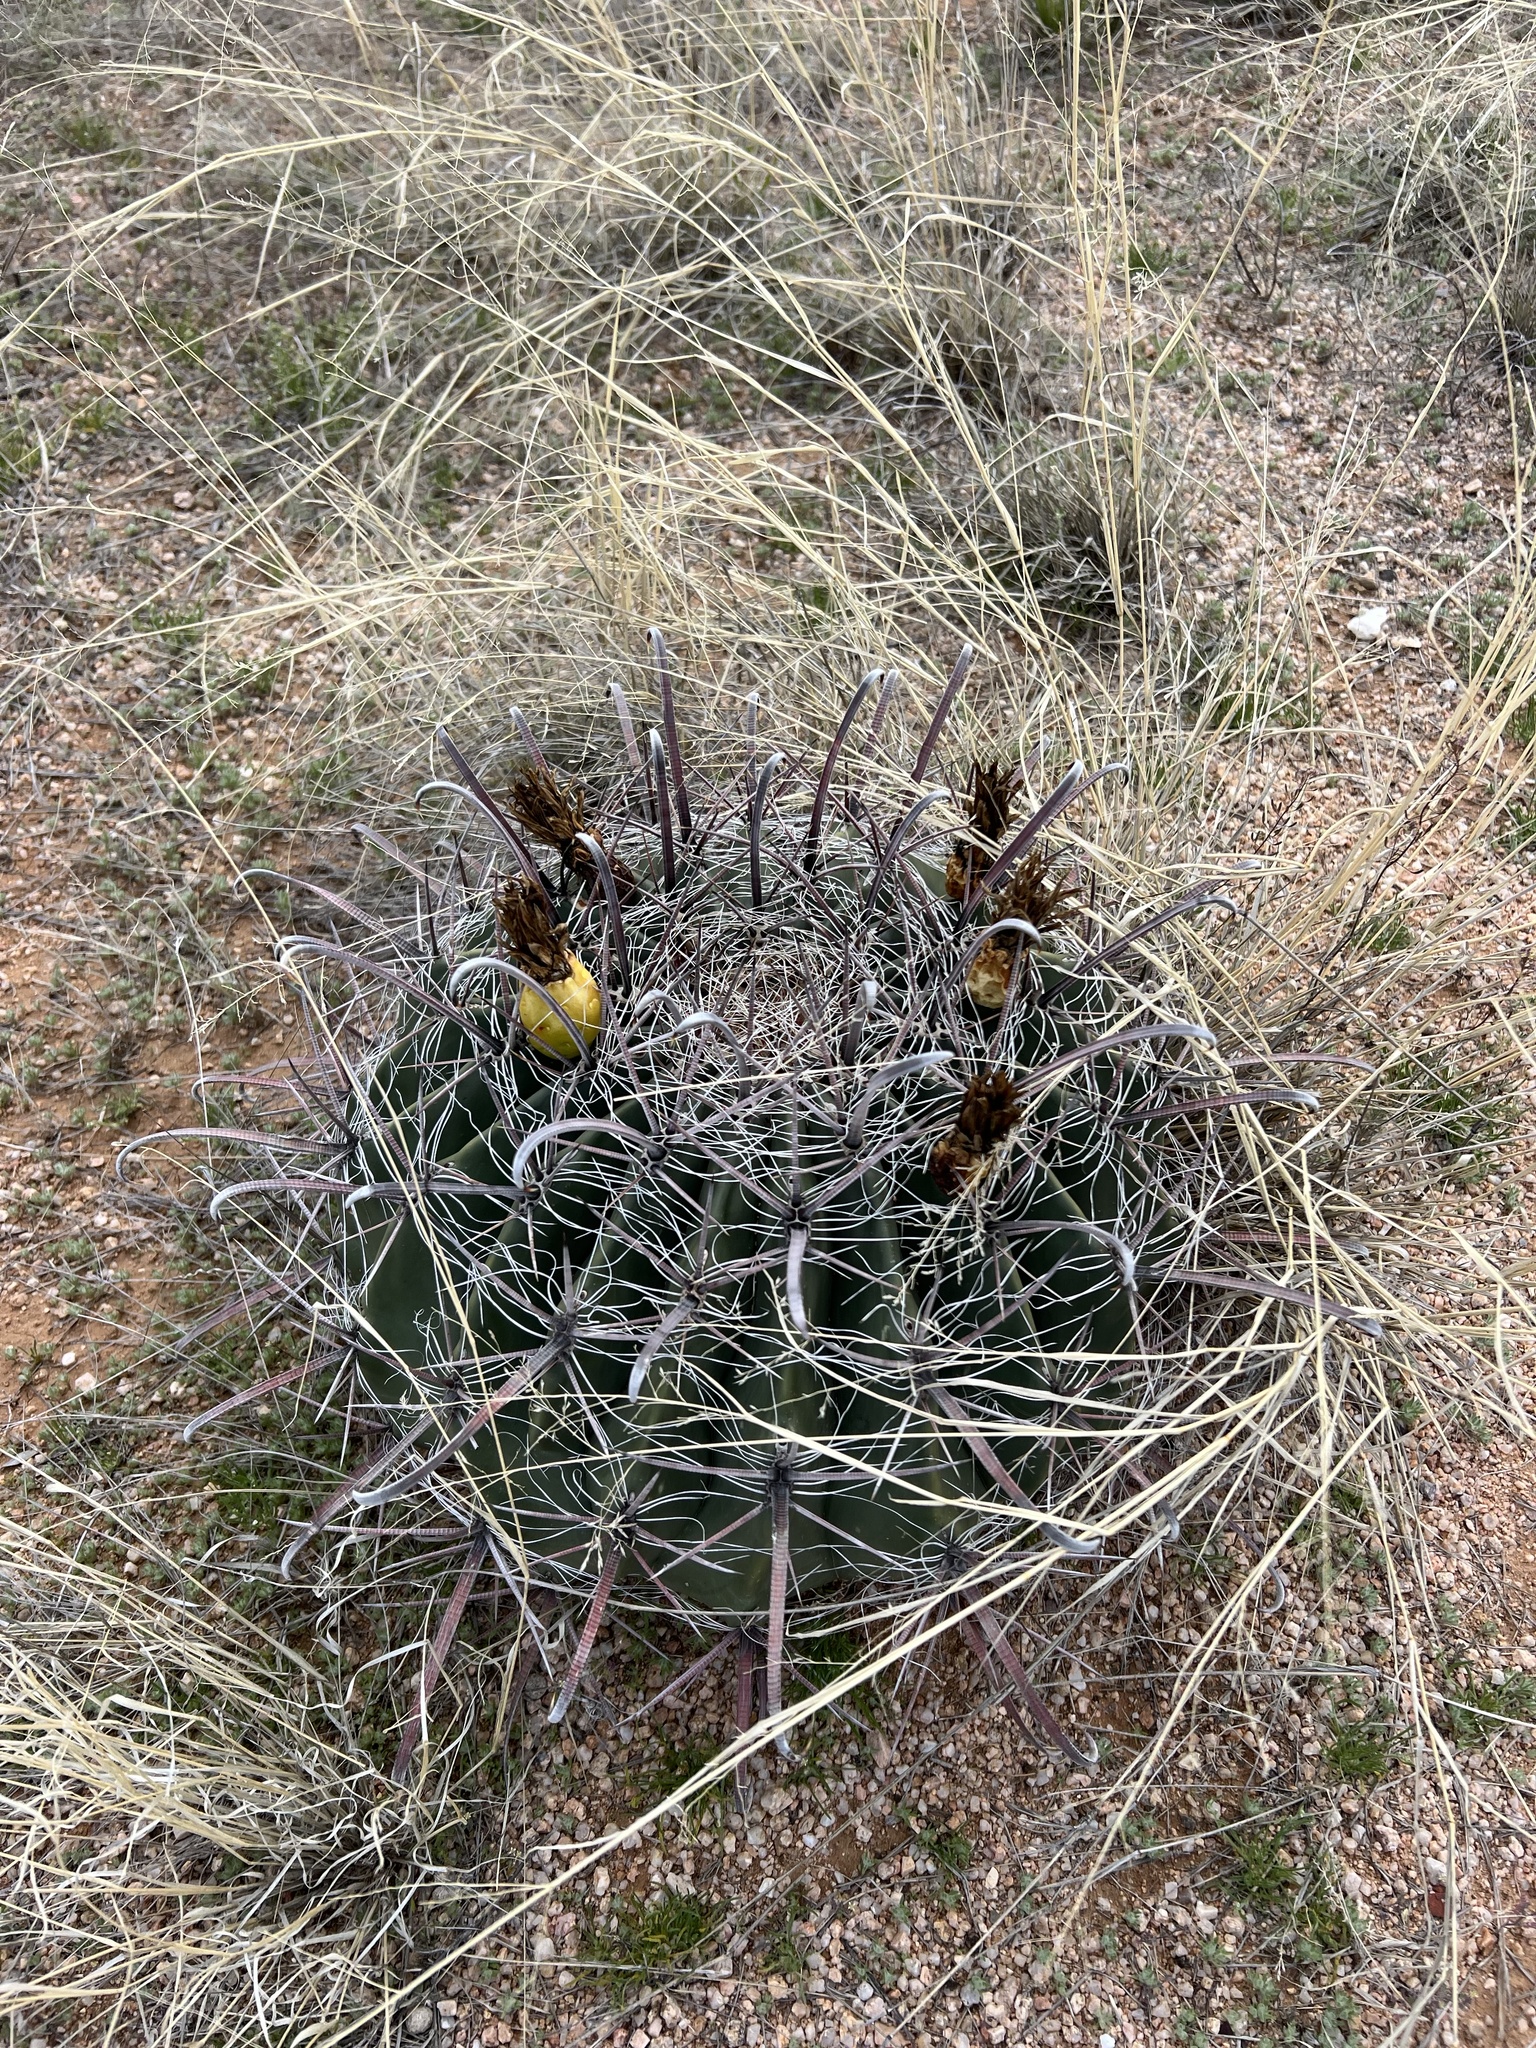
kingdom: Plantae
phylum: Tracheophyta
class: Magnoliopsida
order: Caryophyllales
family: Cactaceae
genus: Ferocactus
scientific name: Ferocactus wislizeni
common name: Candy barrel cactus
